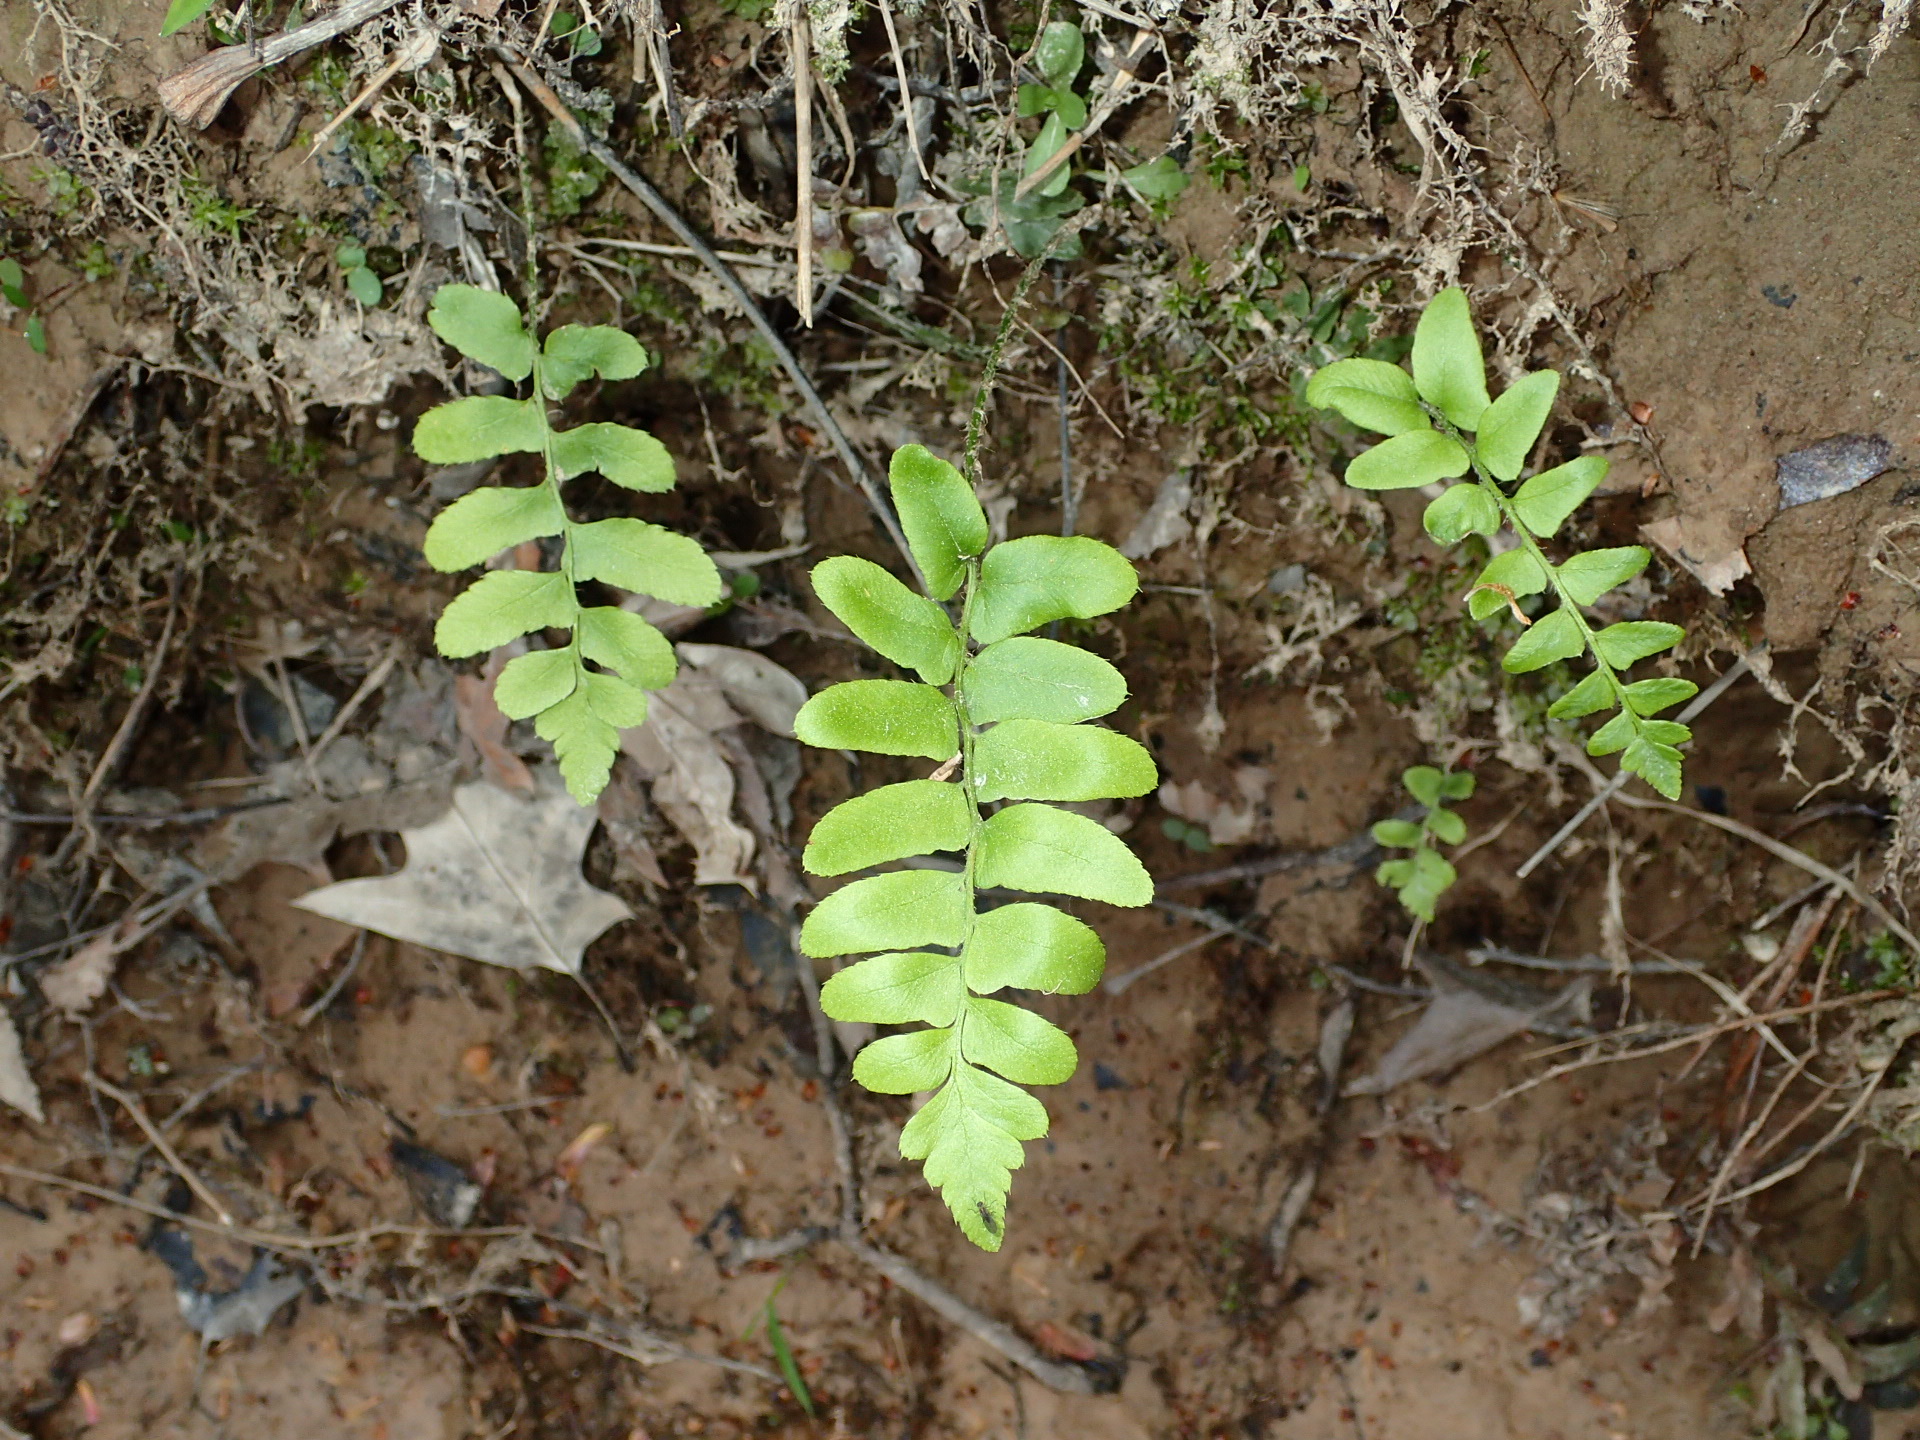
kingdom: Plantae
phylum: Tracheophyta
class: Polypodiopsida
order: Polypodiales
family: Dryopteridaceae
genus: Polystichum
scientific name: Polystichum acrostichoides
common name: Christmas fern
